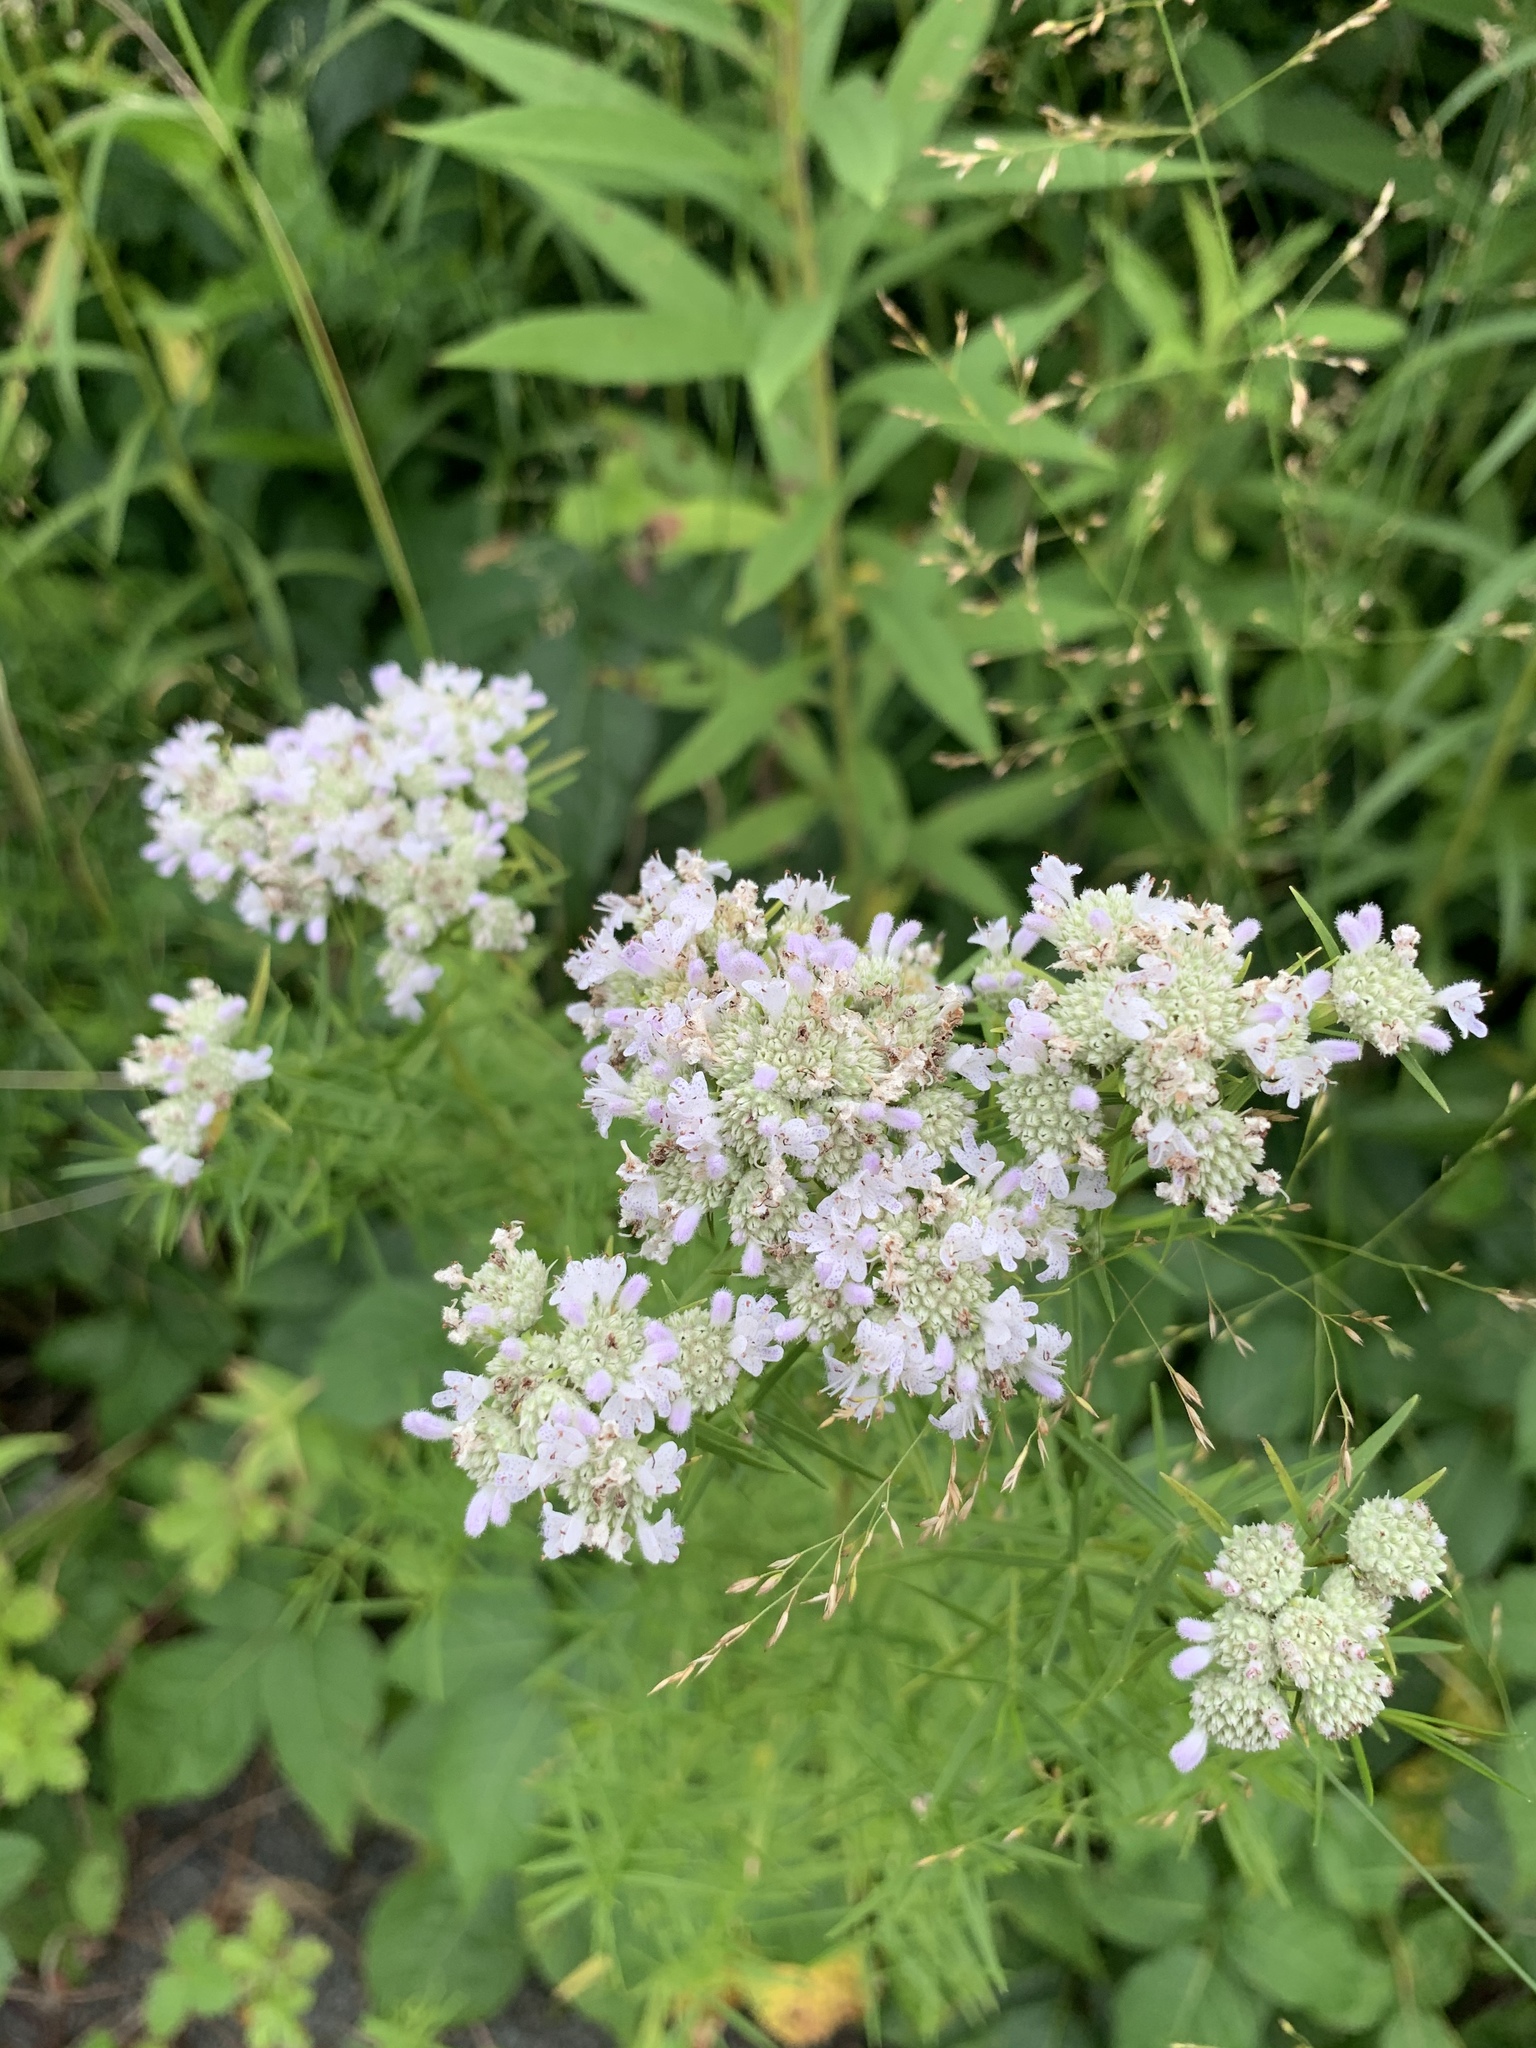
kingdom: Plantae
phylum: Tracheophyta
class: Magnoliopsida
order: Lamiales
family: Lamiaceae
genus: Pycnanthemum
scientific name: Pycnanthemum tenuifolium
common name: Narrow-leaf mountain-mint
